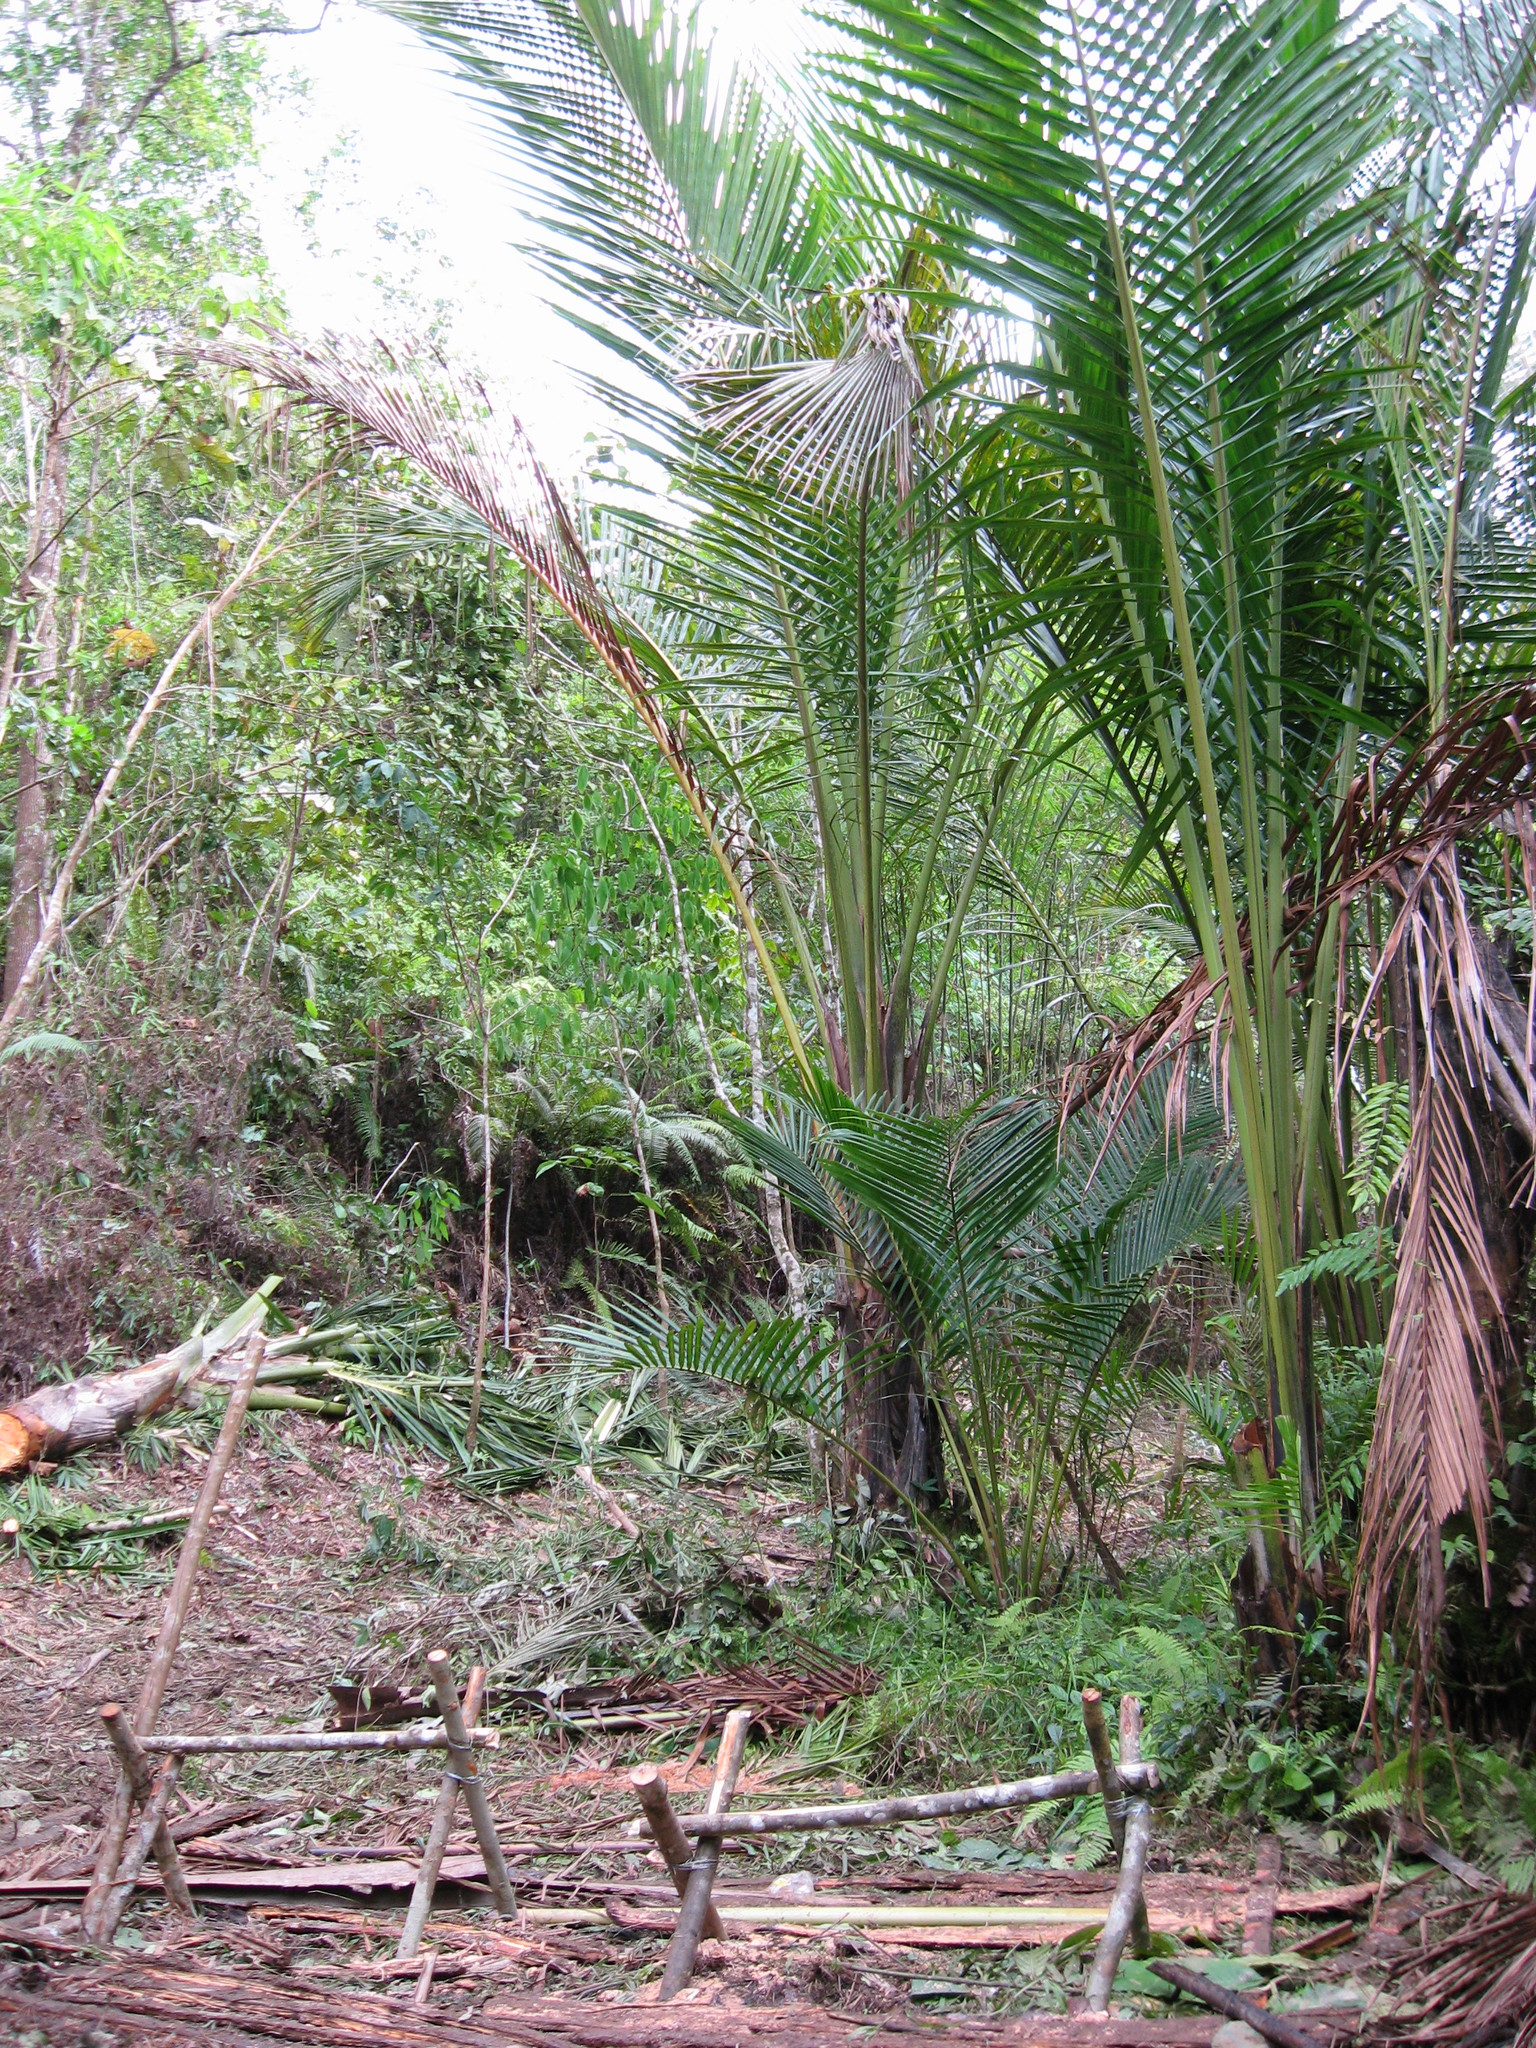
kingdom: Plantae
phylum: Tracheophyta
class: Liliopsida
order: Arecales
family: Arecaceae
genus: Metroxylon
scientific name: Metroxylon sagu
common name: Sago palm
